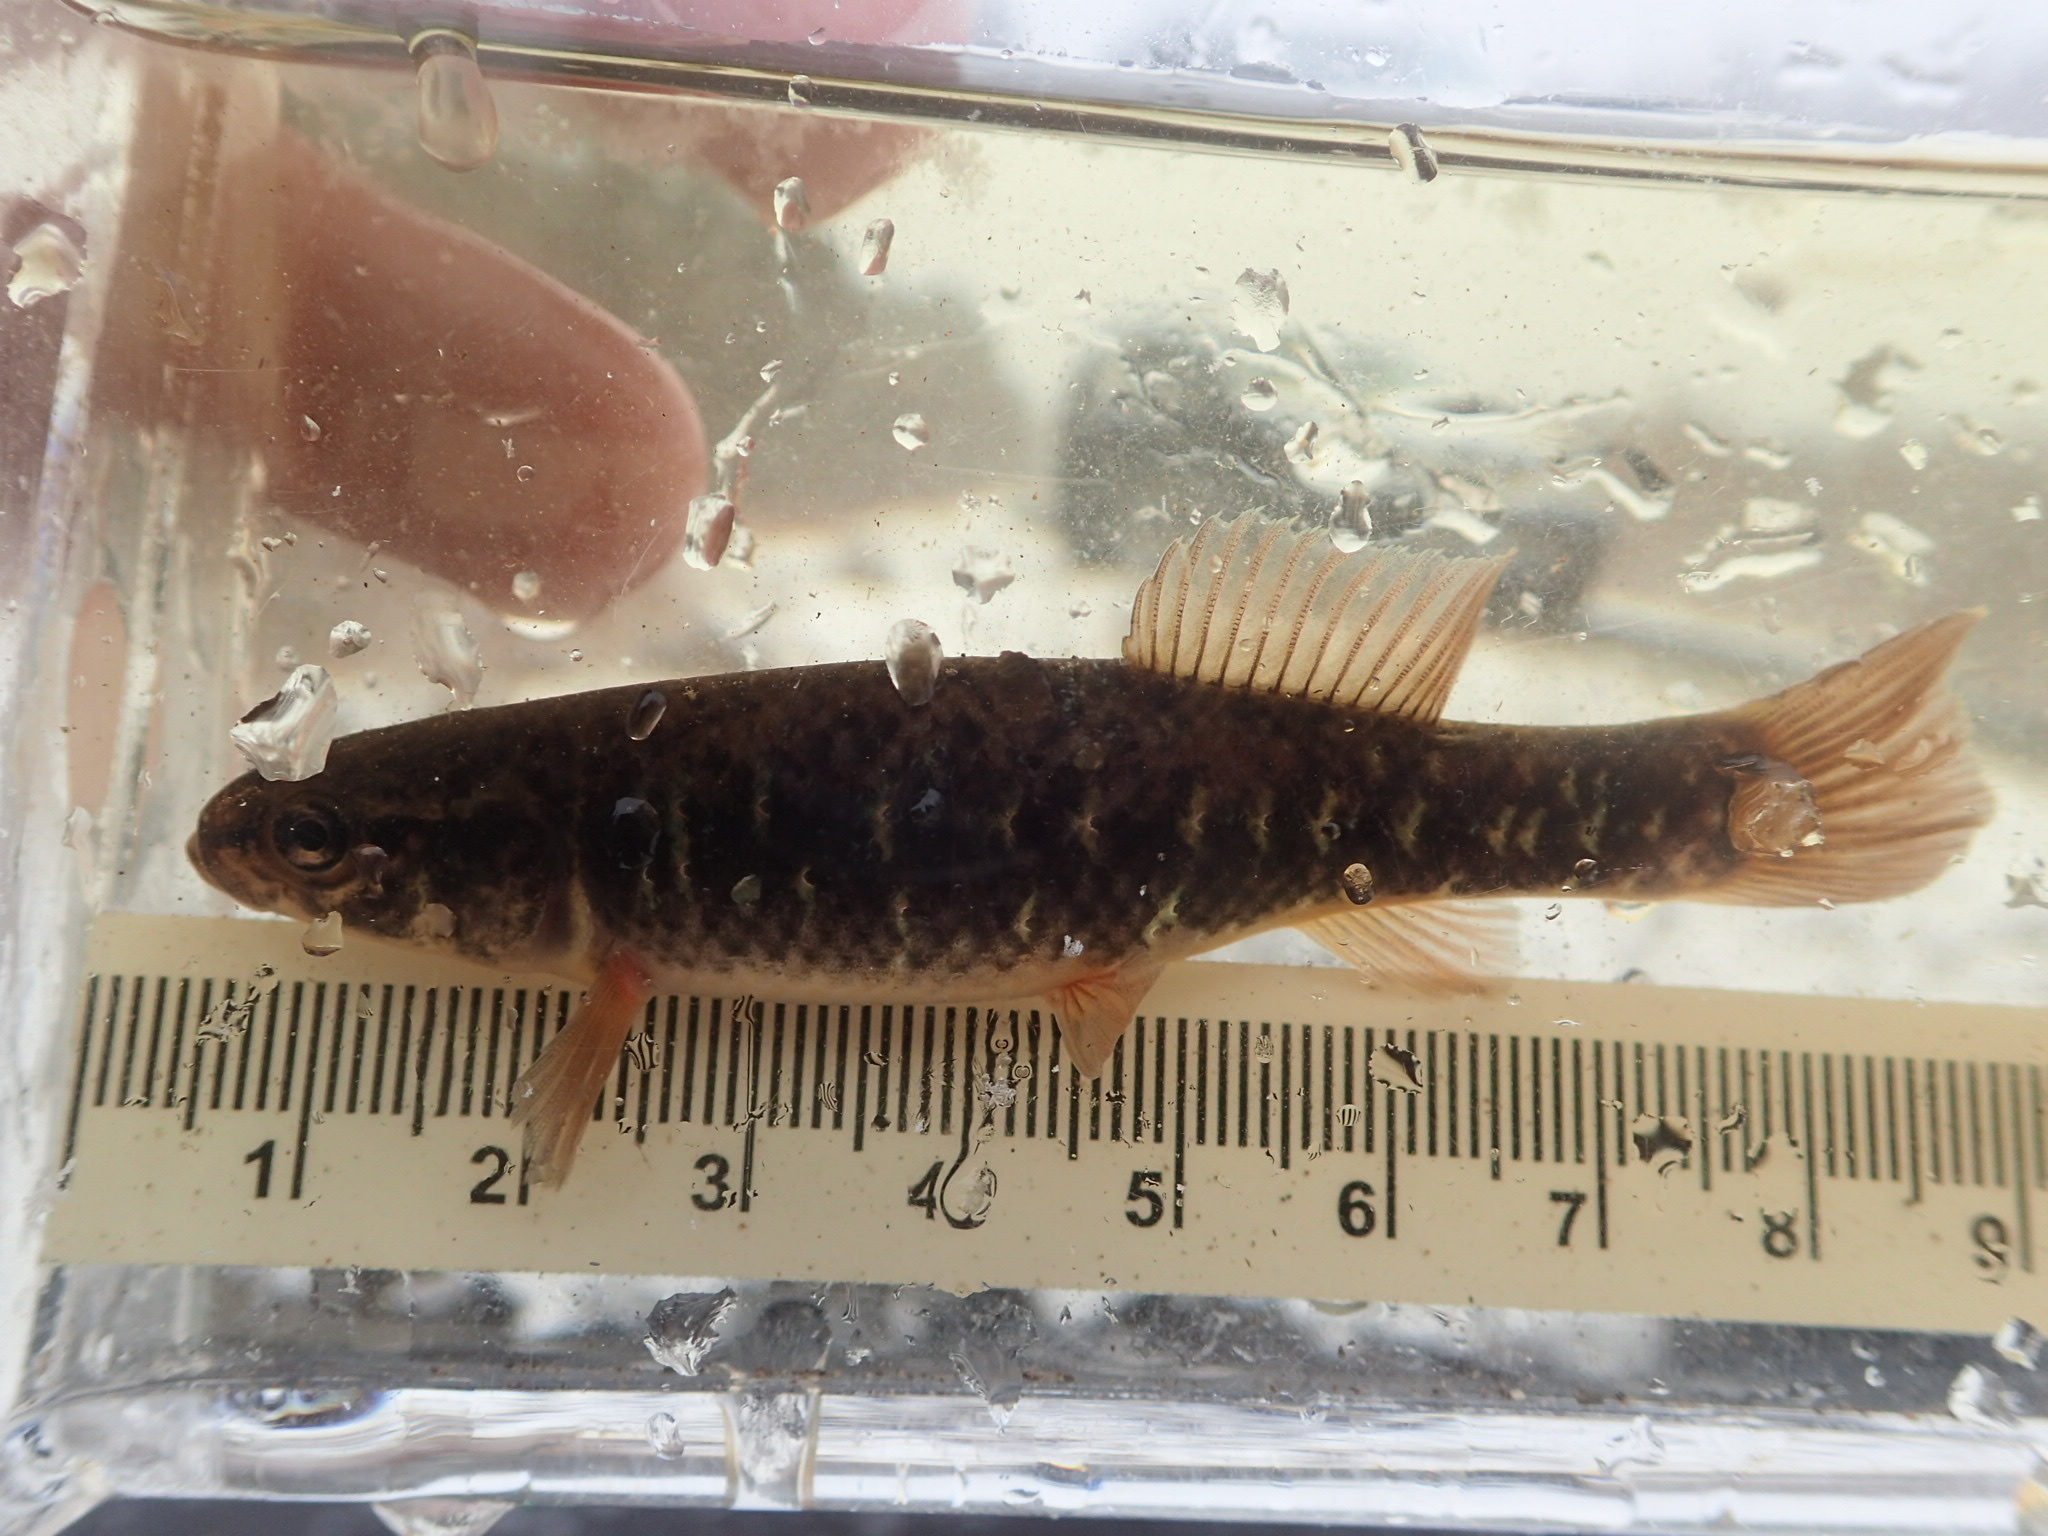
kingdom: Animalia
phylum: Chordata
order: Esociformes
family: Umbridae
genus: Umbra
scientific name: Umbra limi
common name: Central mudminnow
